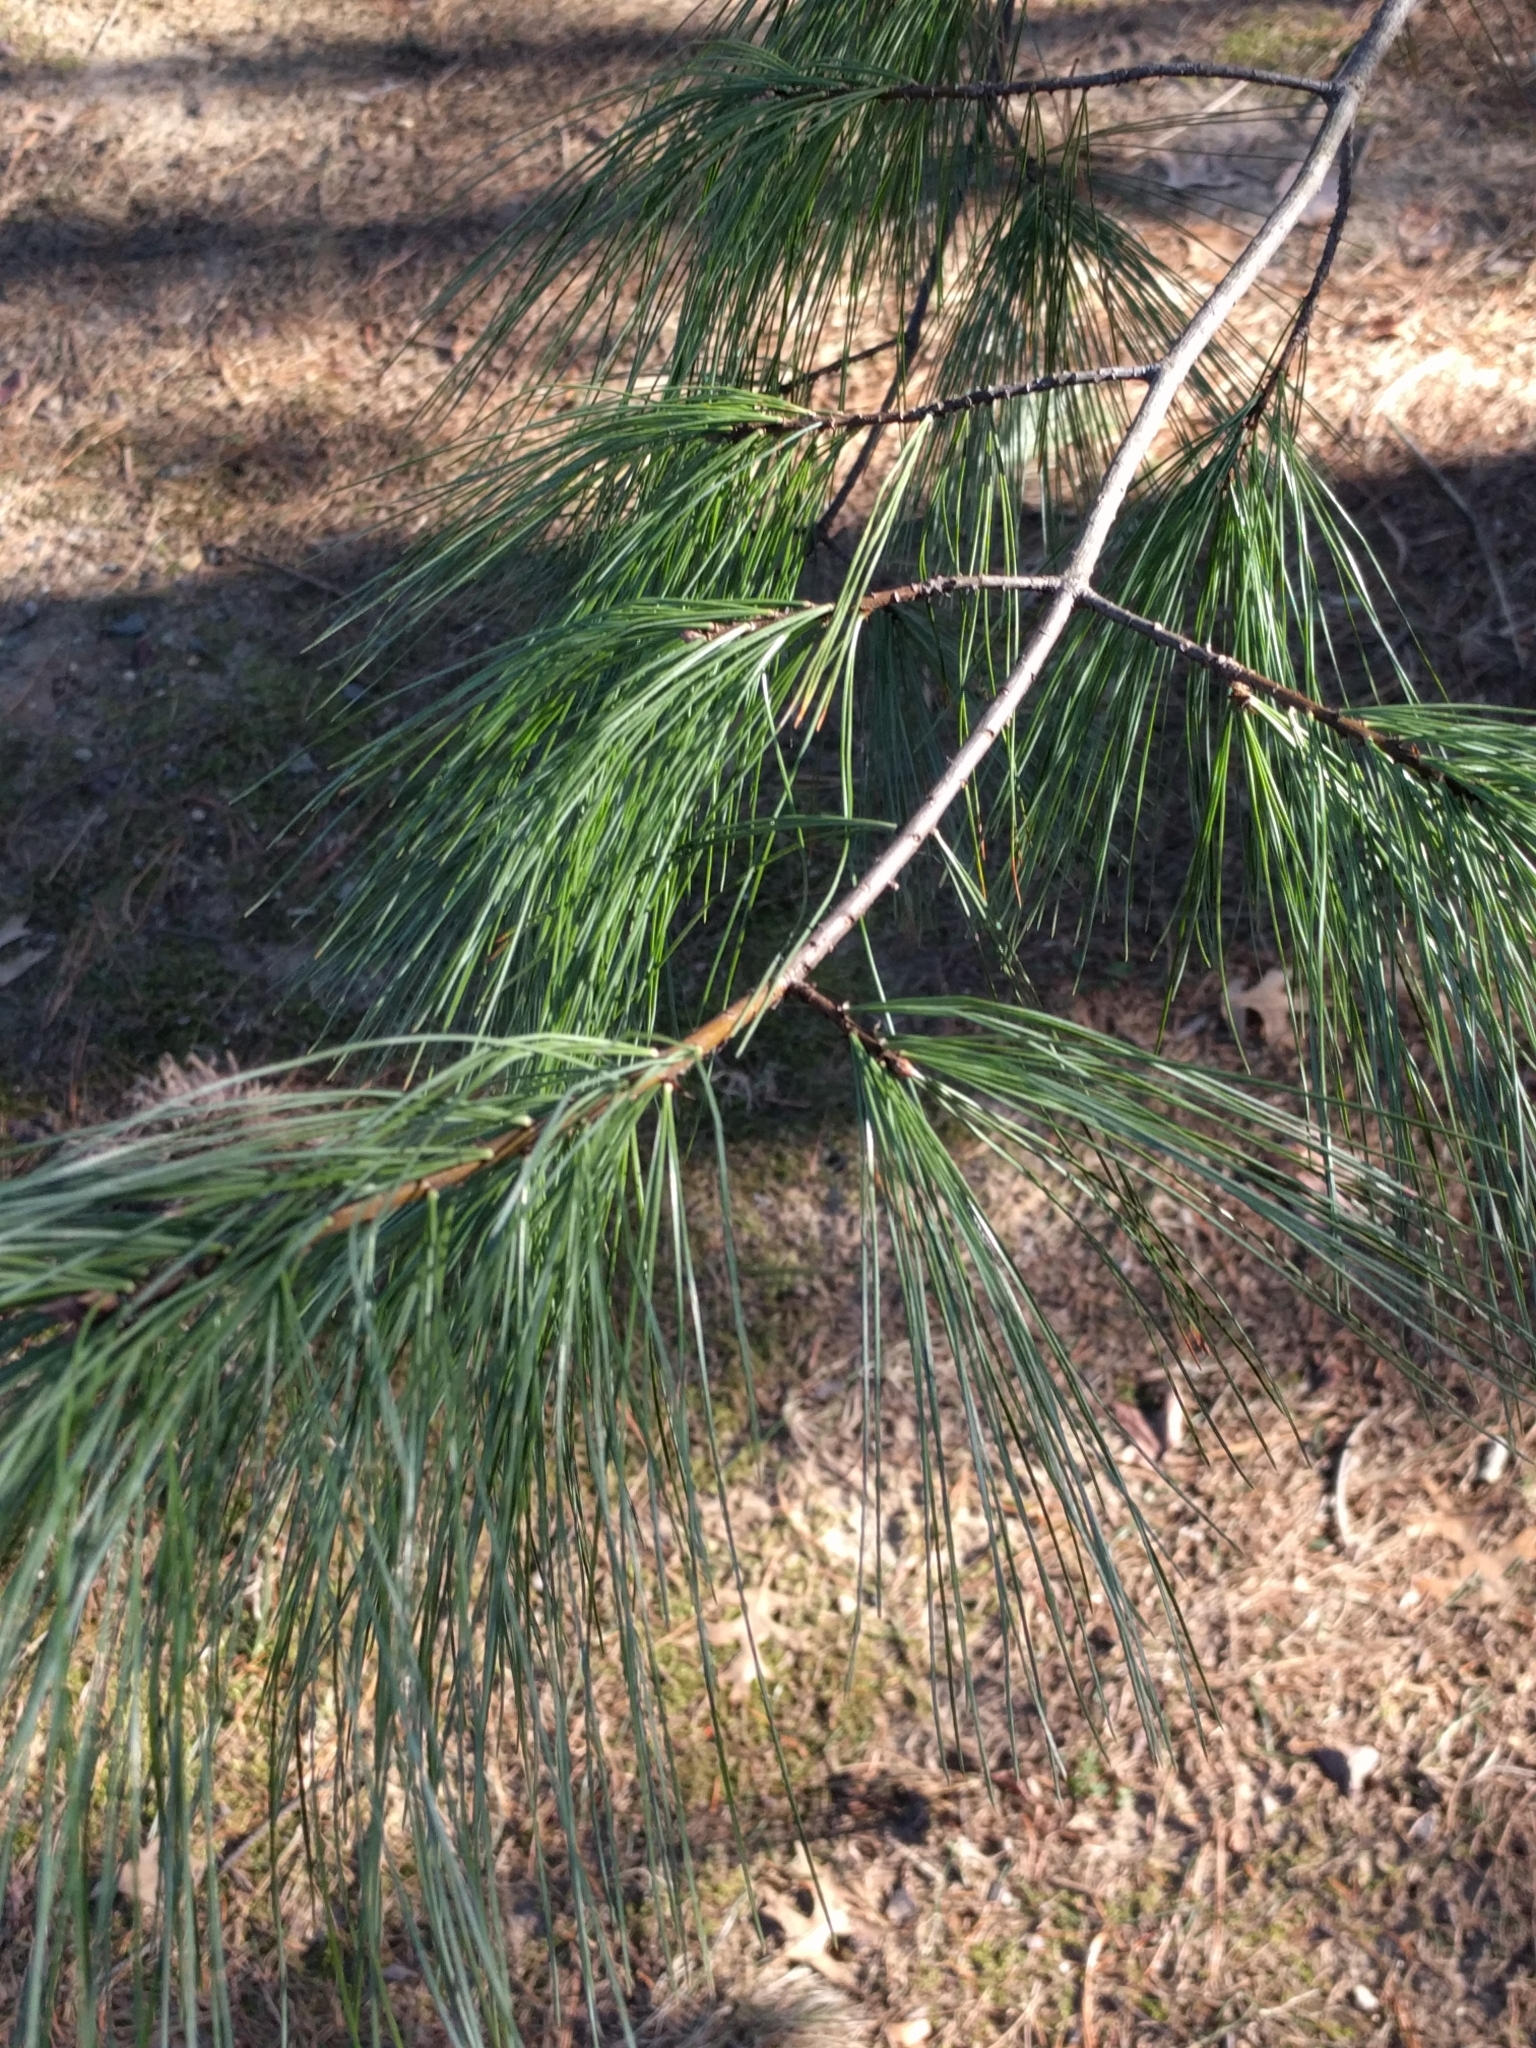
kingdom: Plantae
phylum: Tracheophyta
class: Pinopsida
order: Pinales
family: Pinaceae
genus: Pinus
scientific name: Pinus strobus
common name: Weymouth pine
